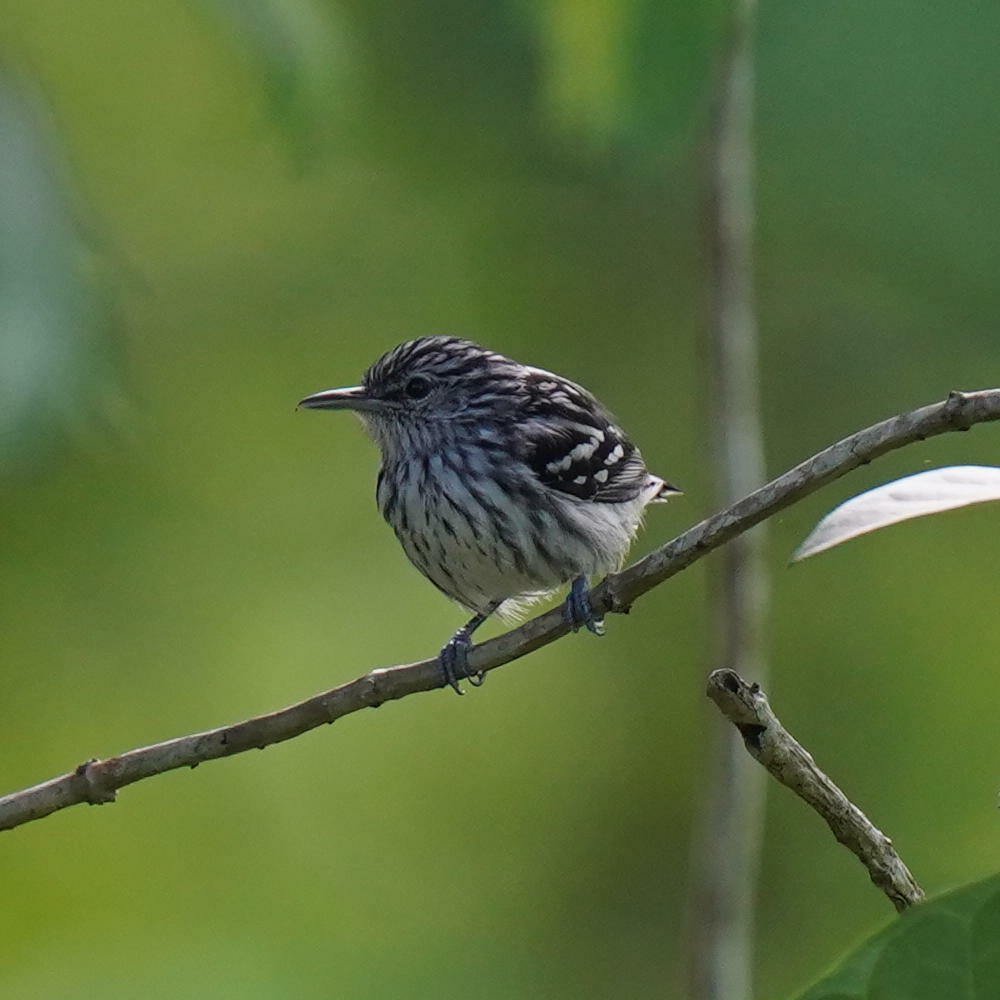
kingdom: Animalia
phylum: Chordata
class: Aves
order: Passeriformes
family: Thamnophilidae
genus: Myrmotherula
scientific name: Myrmotherula pacifica
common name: Pacific antwren
